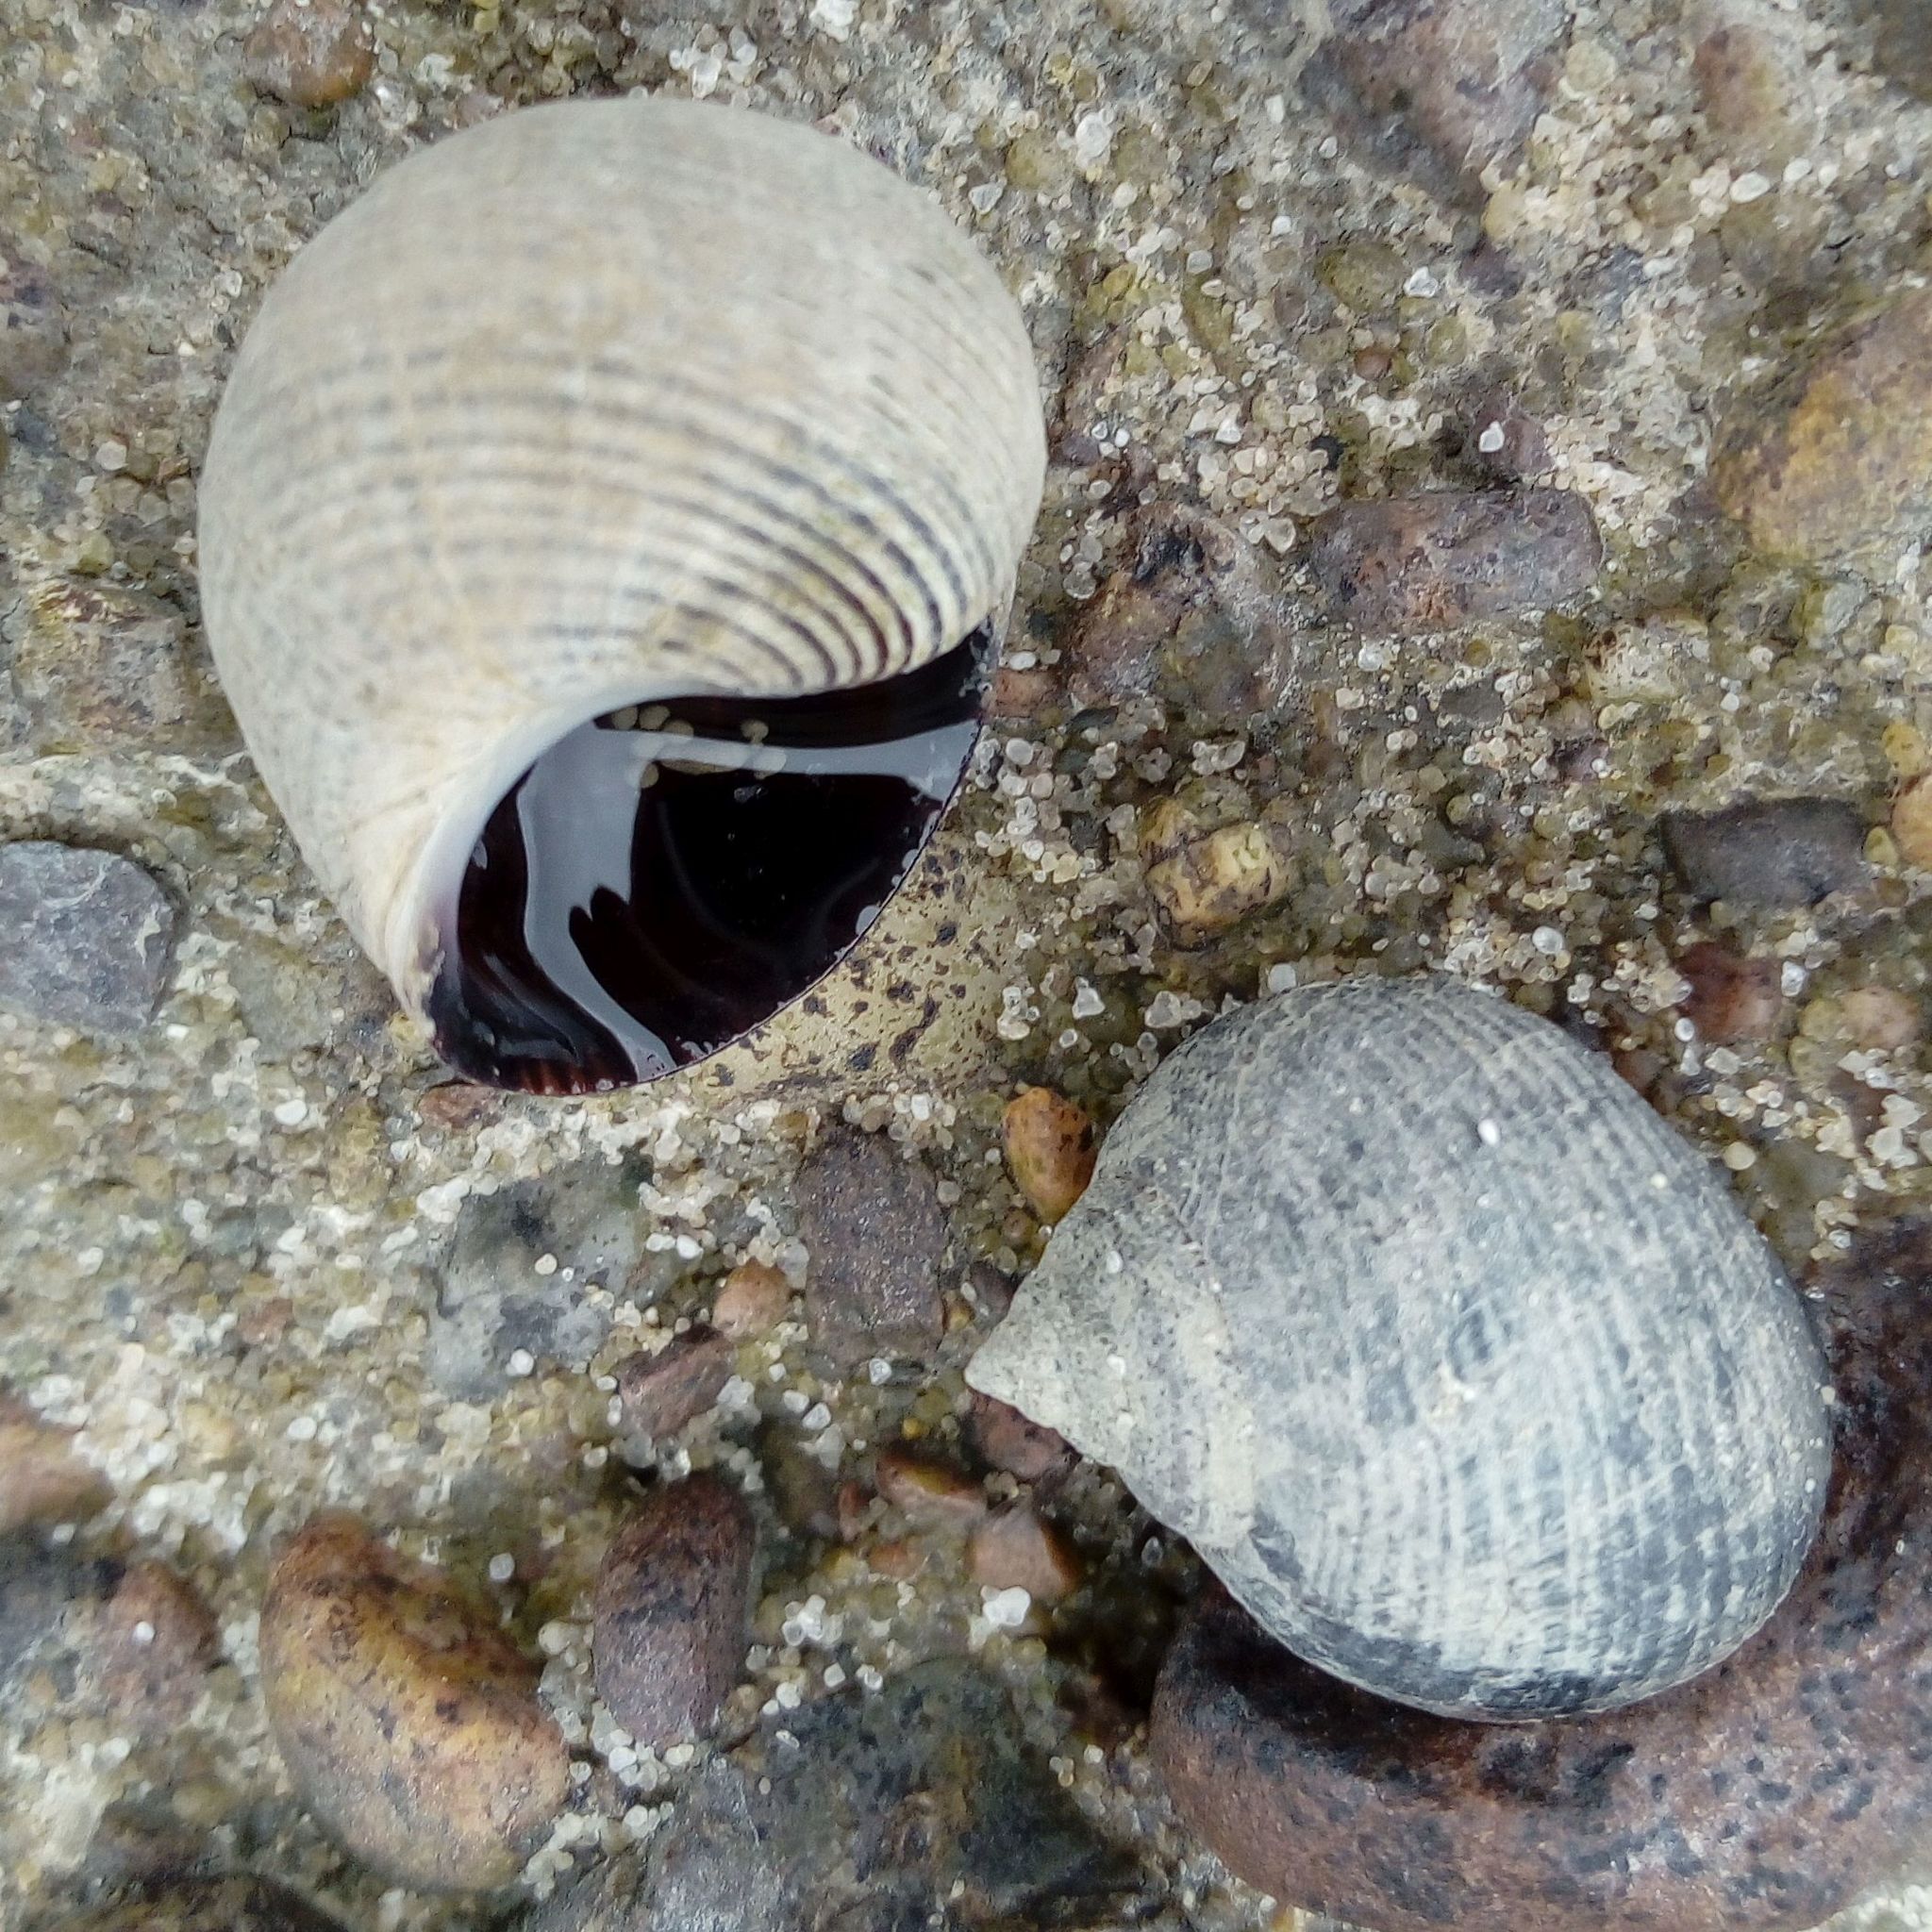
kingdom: Animalia
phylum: Mollusca
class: Gastropoda
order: Littorinimorpha
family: Littorinidae
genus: Littorina
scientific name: Littorina littorea
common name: Common periwinkle
